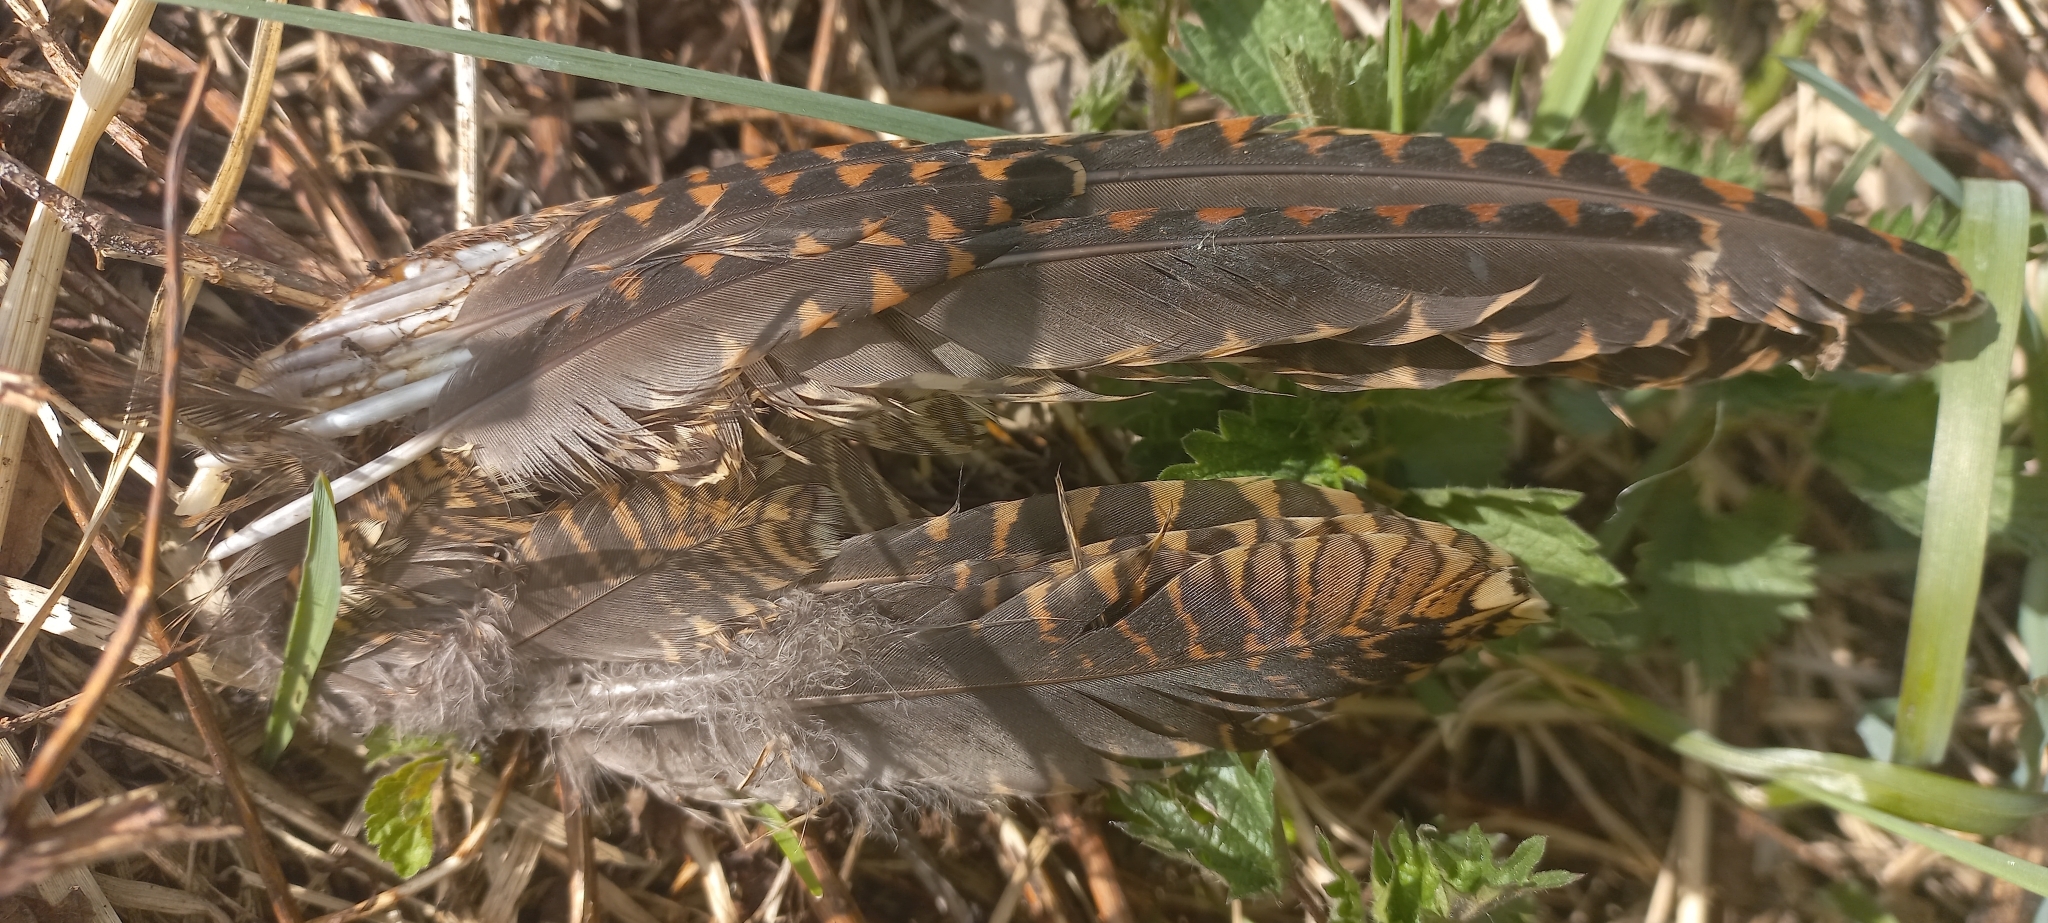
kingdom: Animalia
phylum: Chordata
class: Aves
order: Charadriiformes
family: Scolopacidae
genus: Scolopax
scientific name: Scolopax rusticola
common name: Eurasian woodcock
